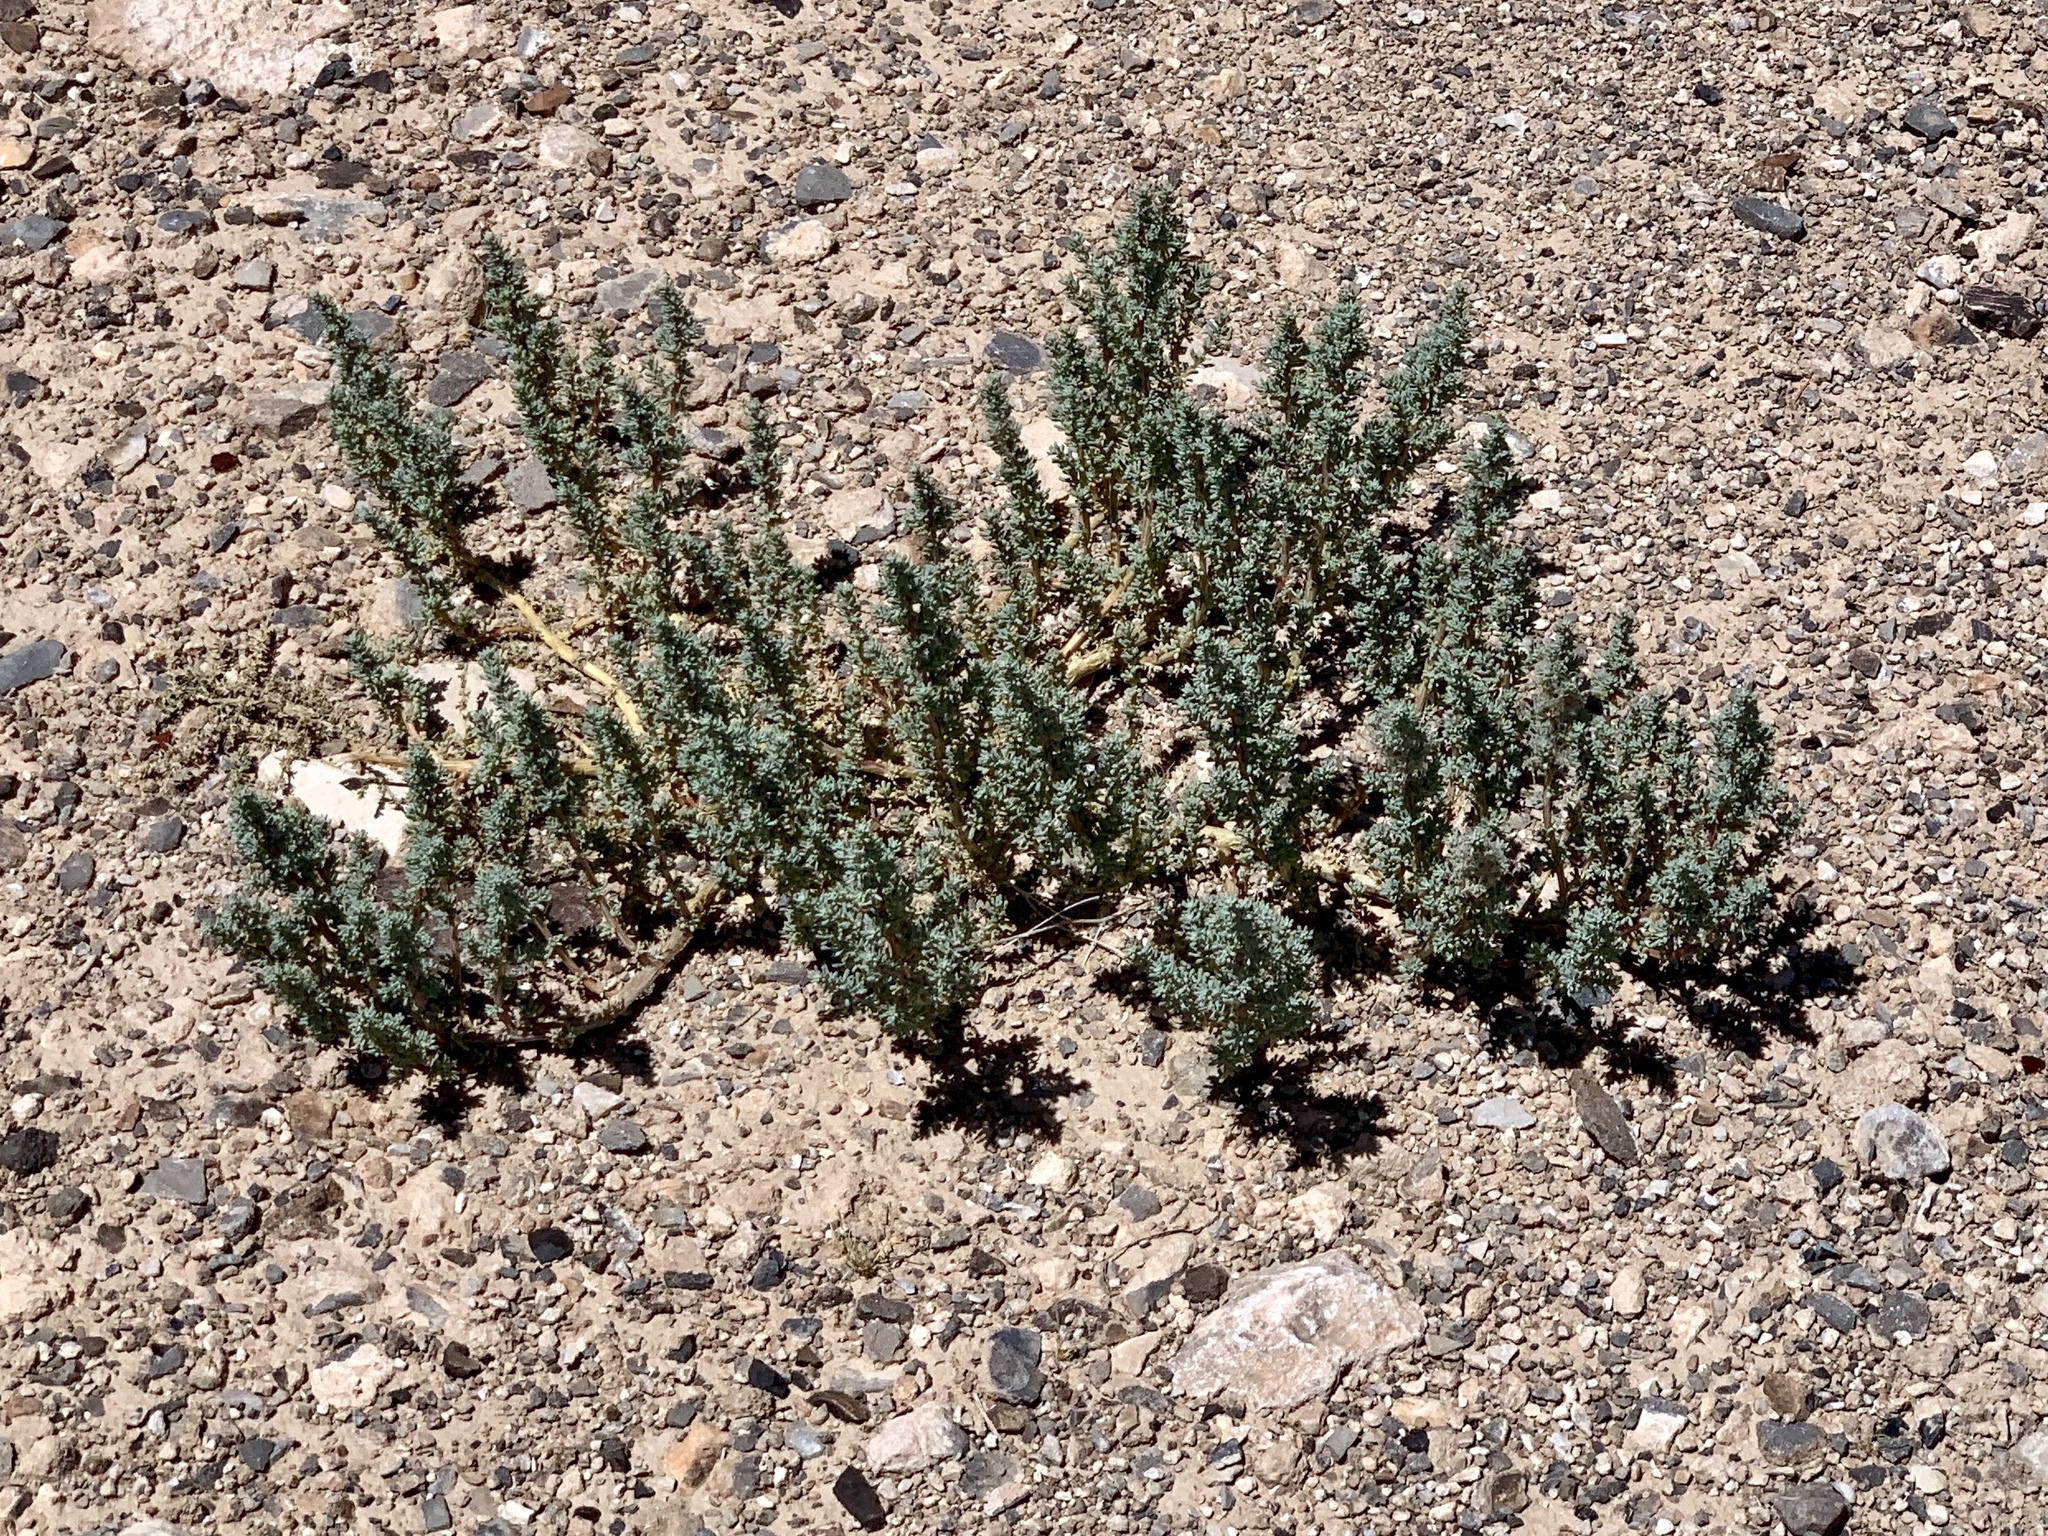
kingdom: Plantae
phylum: Tracheophyta
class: Magnoliopsida
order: Caryophyllales
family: Amaranthaceae
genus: Halogeton
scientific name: Halogeton glomeratus
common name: Saltlover
